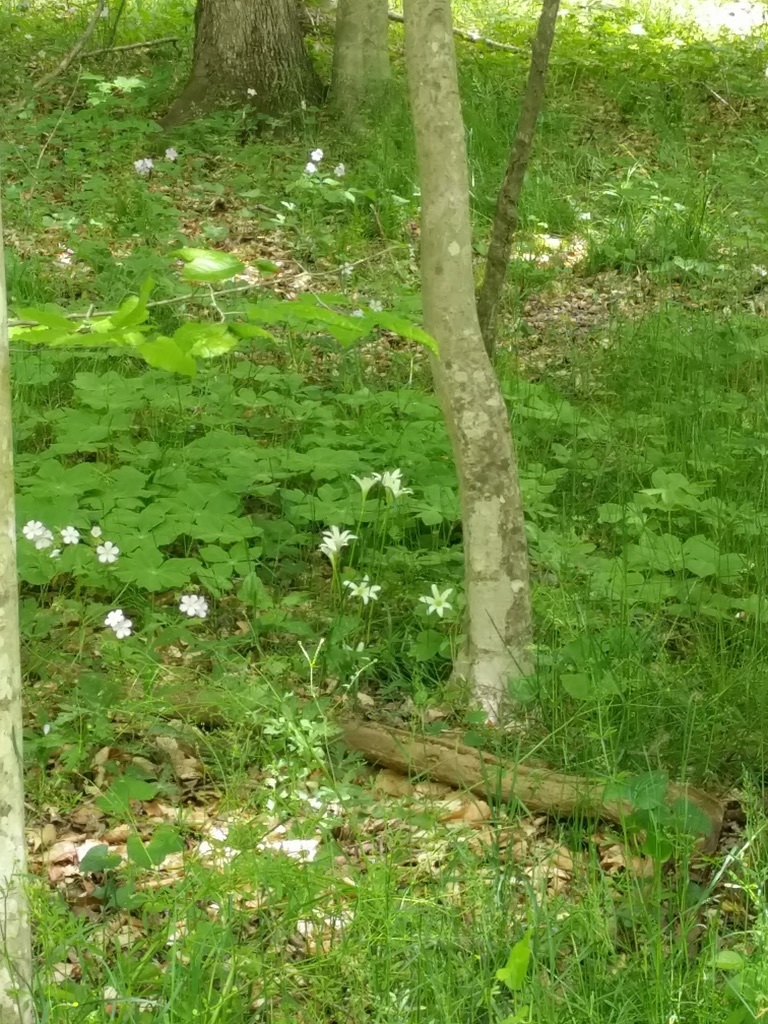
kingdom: Plantae
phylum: Tracheophyta
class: Liliopsida
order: Asparagales
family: Amaryllidaceae
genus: Zephyranthes
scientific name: Zephyranthes atamasco
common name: Atamasco lily
